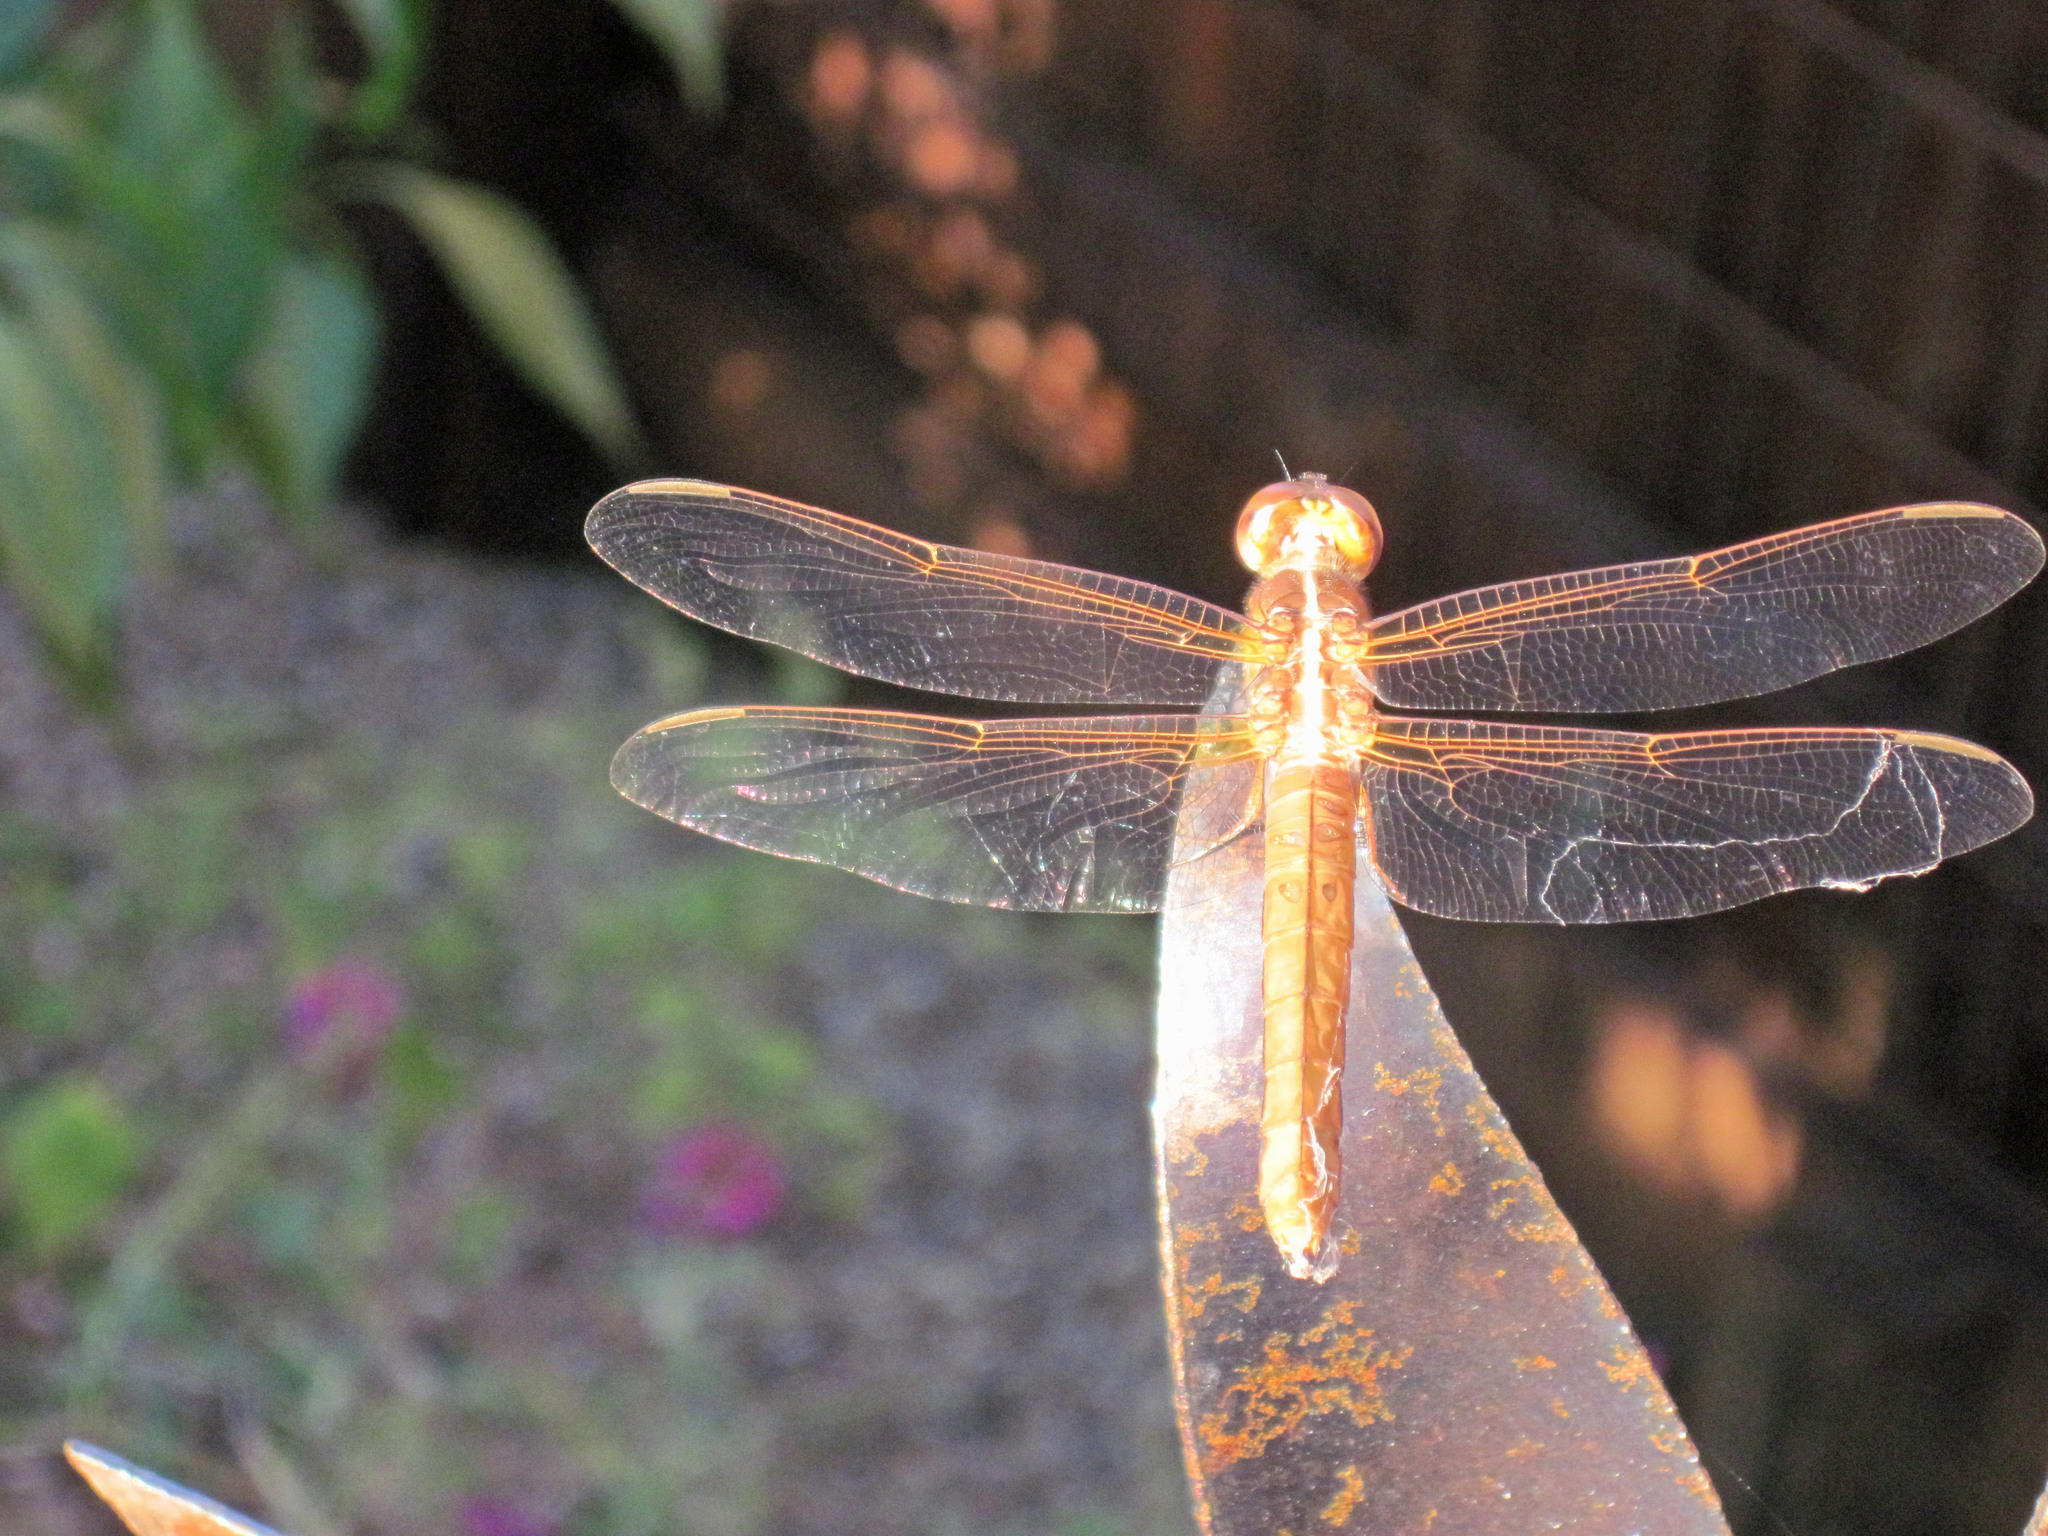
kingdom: Animalia
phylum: Arthropoda
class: Insecta
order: Odonata
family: Libellulidae
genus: Libellula
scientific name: Libellula croceipennis
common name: Neon skimmer
